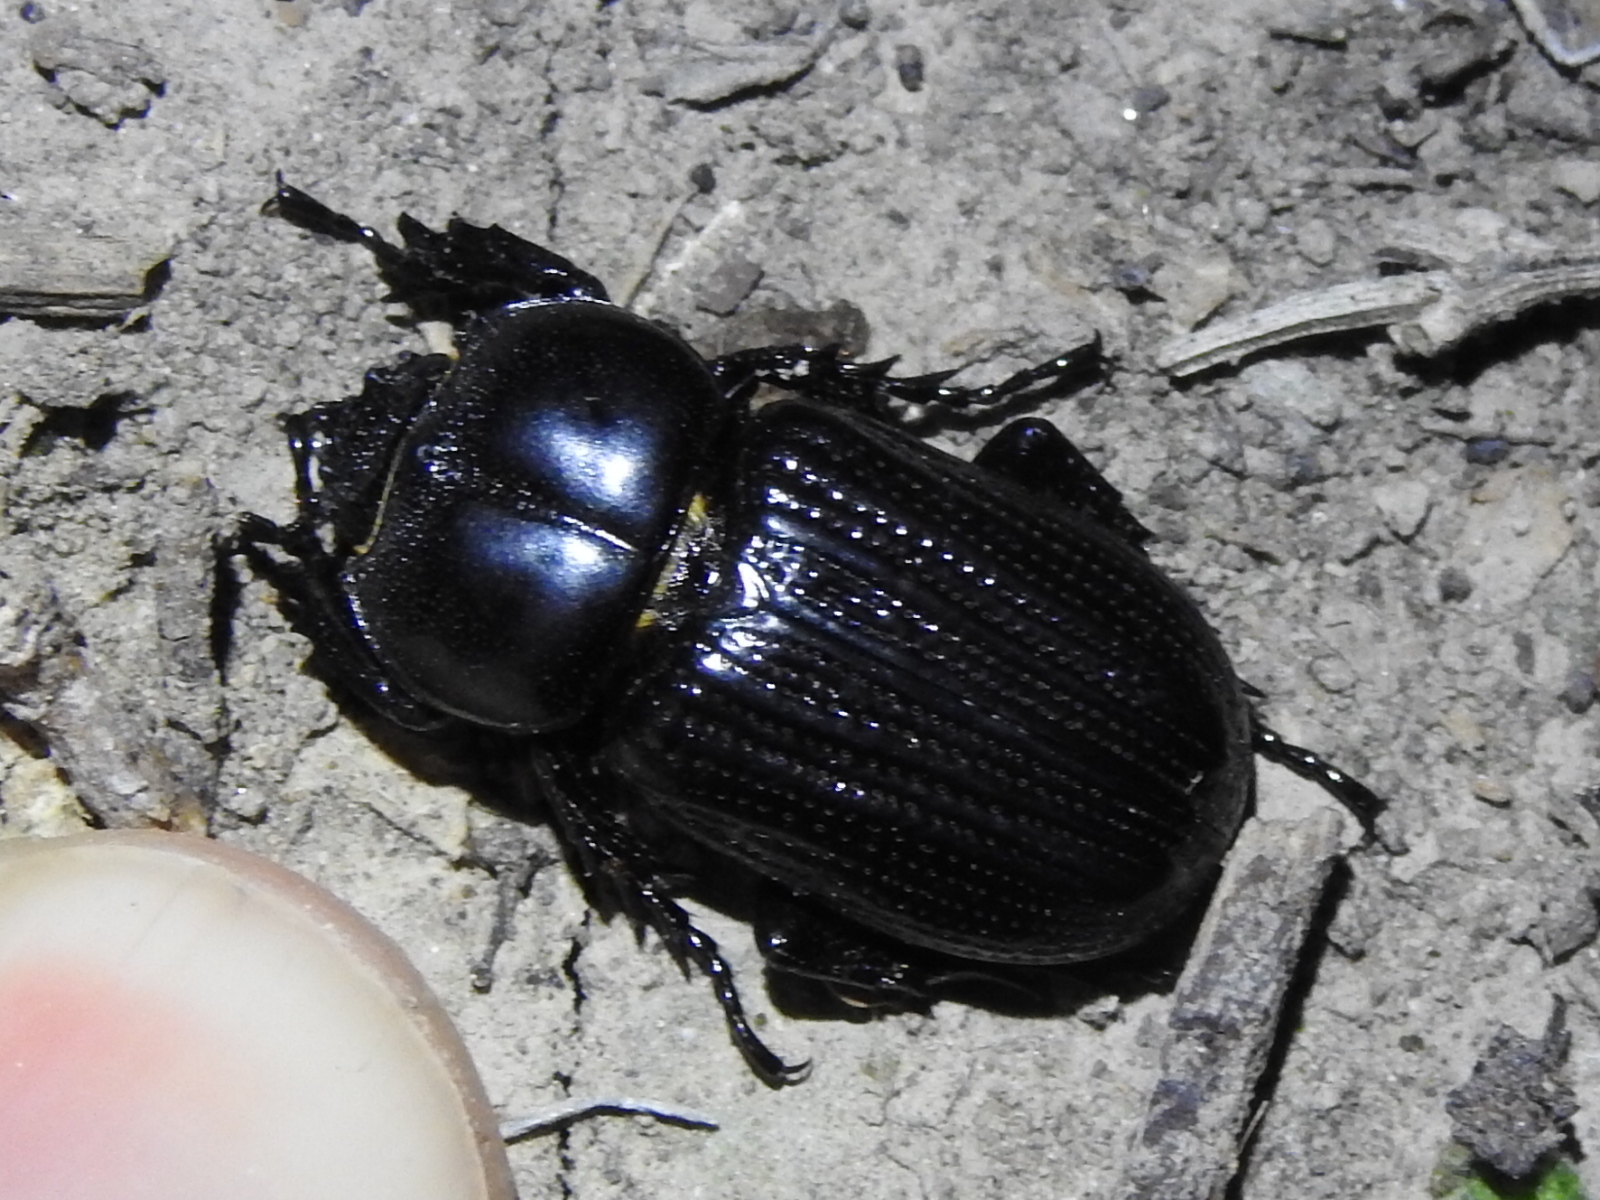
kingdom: Animalia
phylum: Arthropoda
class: Insecta
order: Coleoptera
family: Scarabaeidae
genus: Phileurus
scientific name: Phileurus valgus
